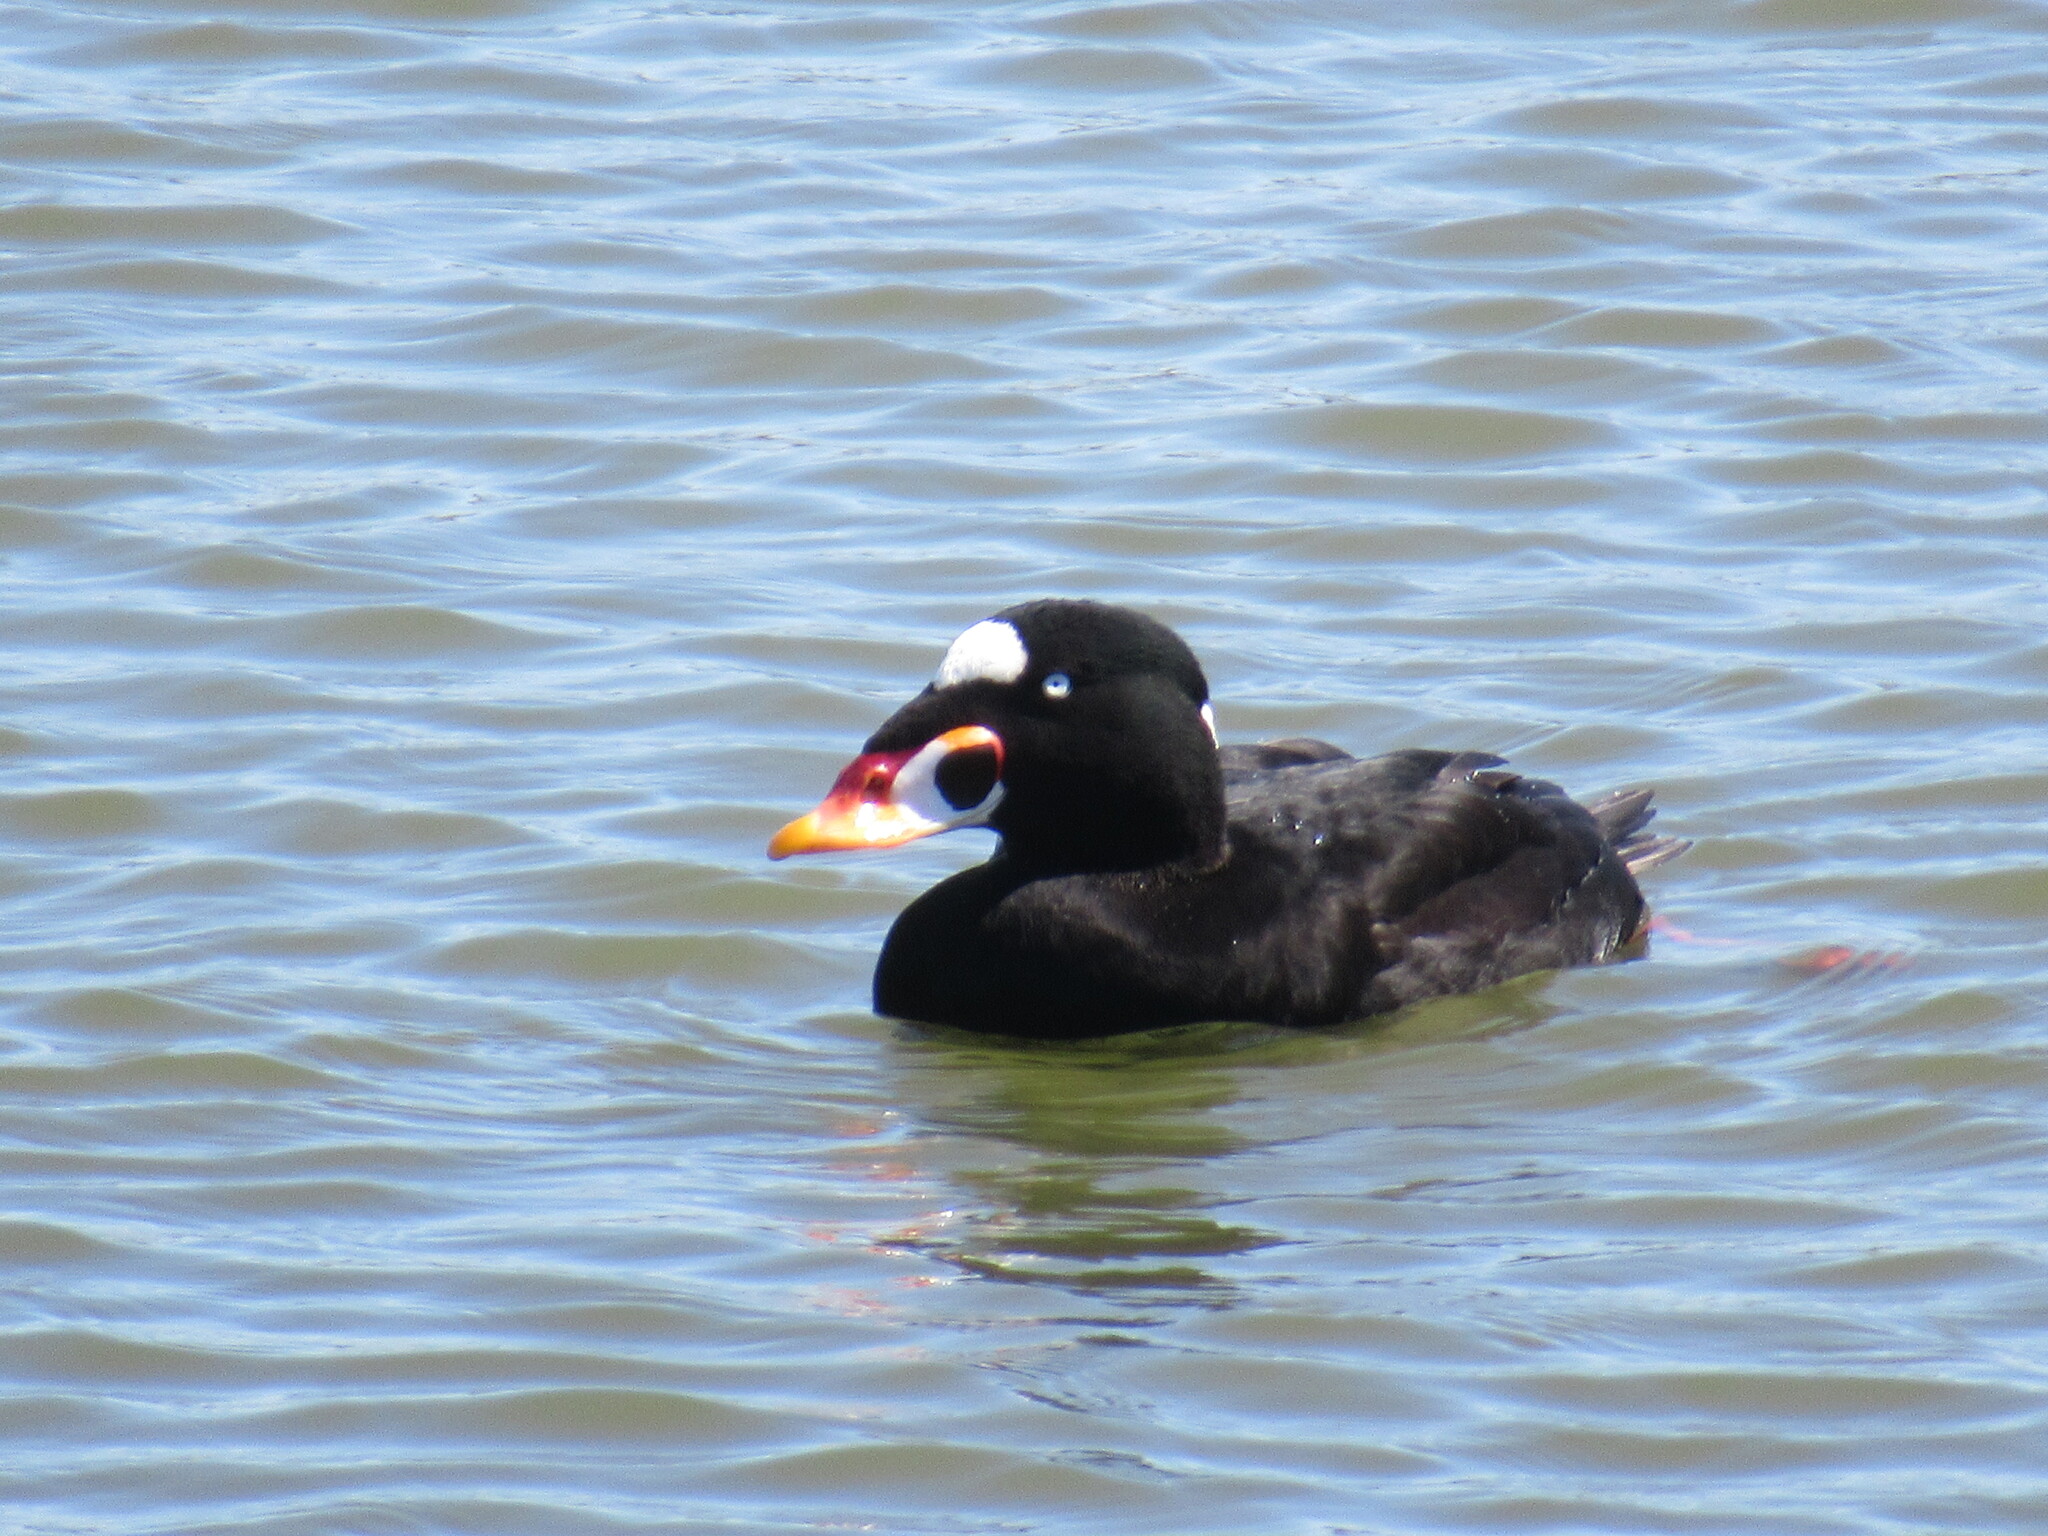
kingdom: Animalia
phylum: Chordata
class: Aves
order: Anseriformes
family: Anatidae
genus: Melanitta
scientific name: Melanitta perspicillata
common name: Surf scoter
